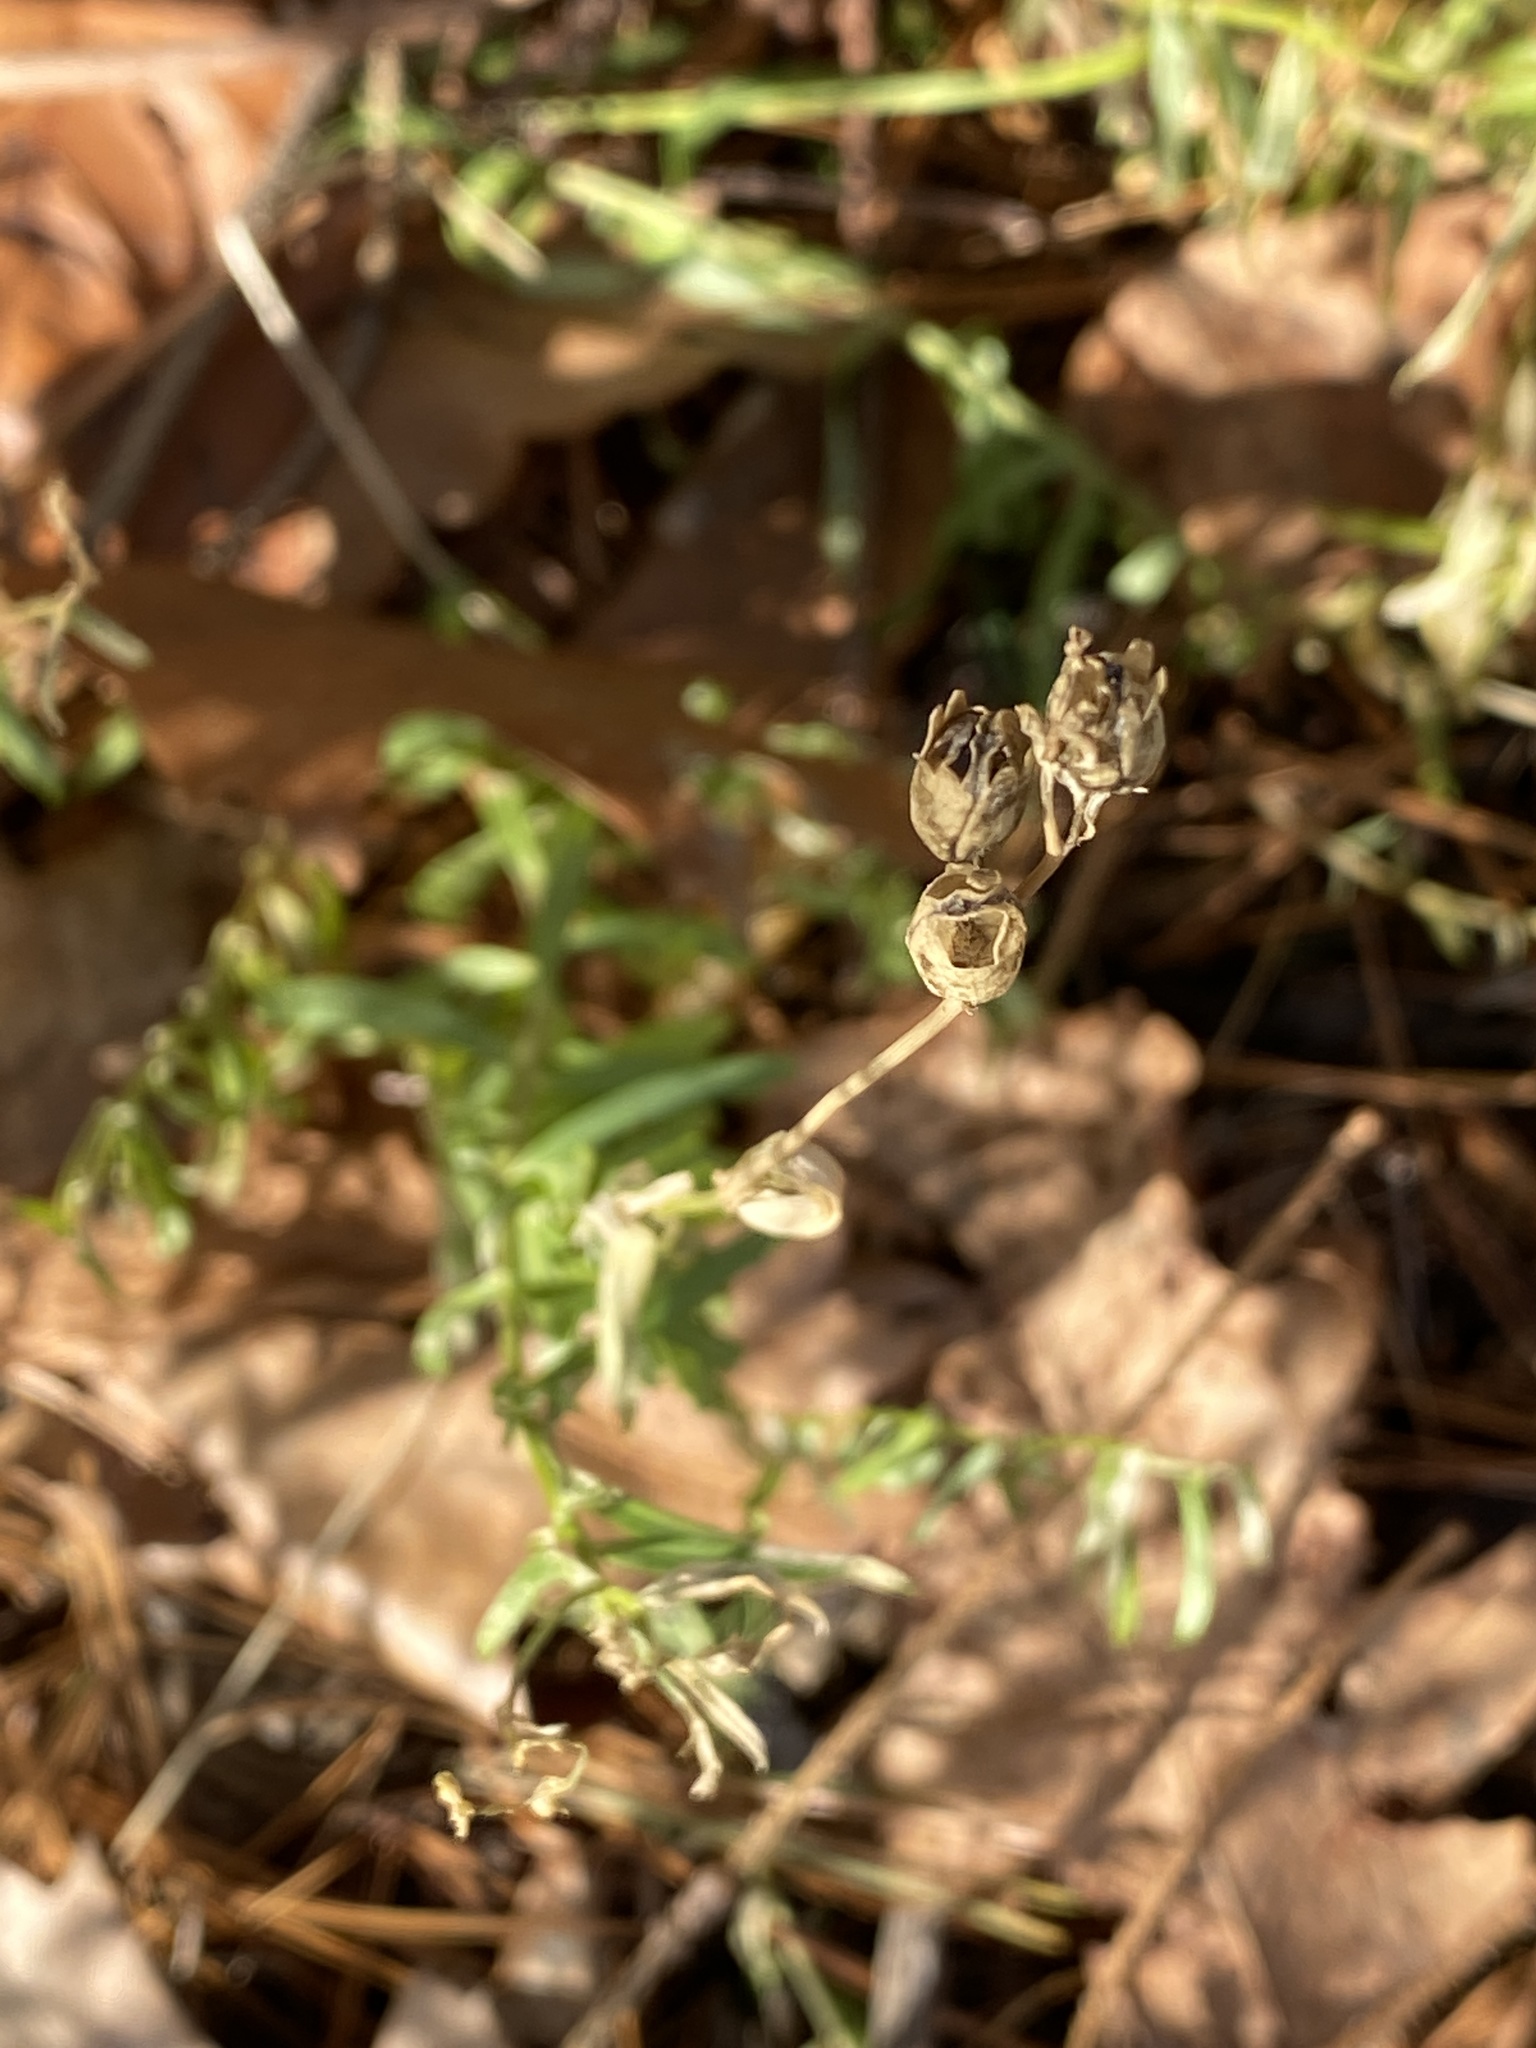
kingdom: Plantae
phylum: Tracheophyta
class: Magnoliopsida
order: Lamiales
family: Plantaginaceae
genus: Linaria
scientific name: Linaria vulgaris
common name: Butter and eggs
